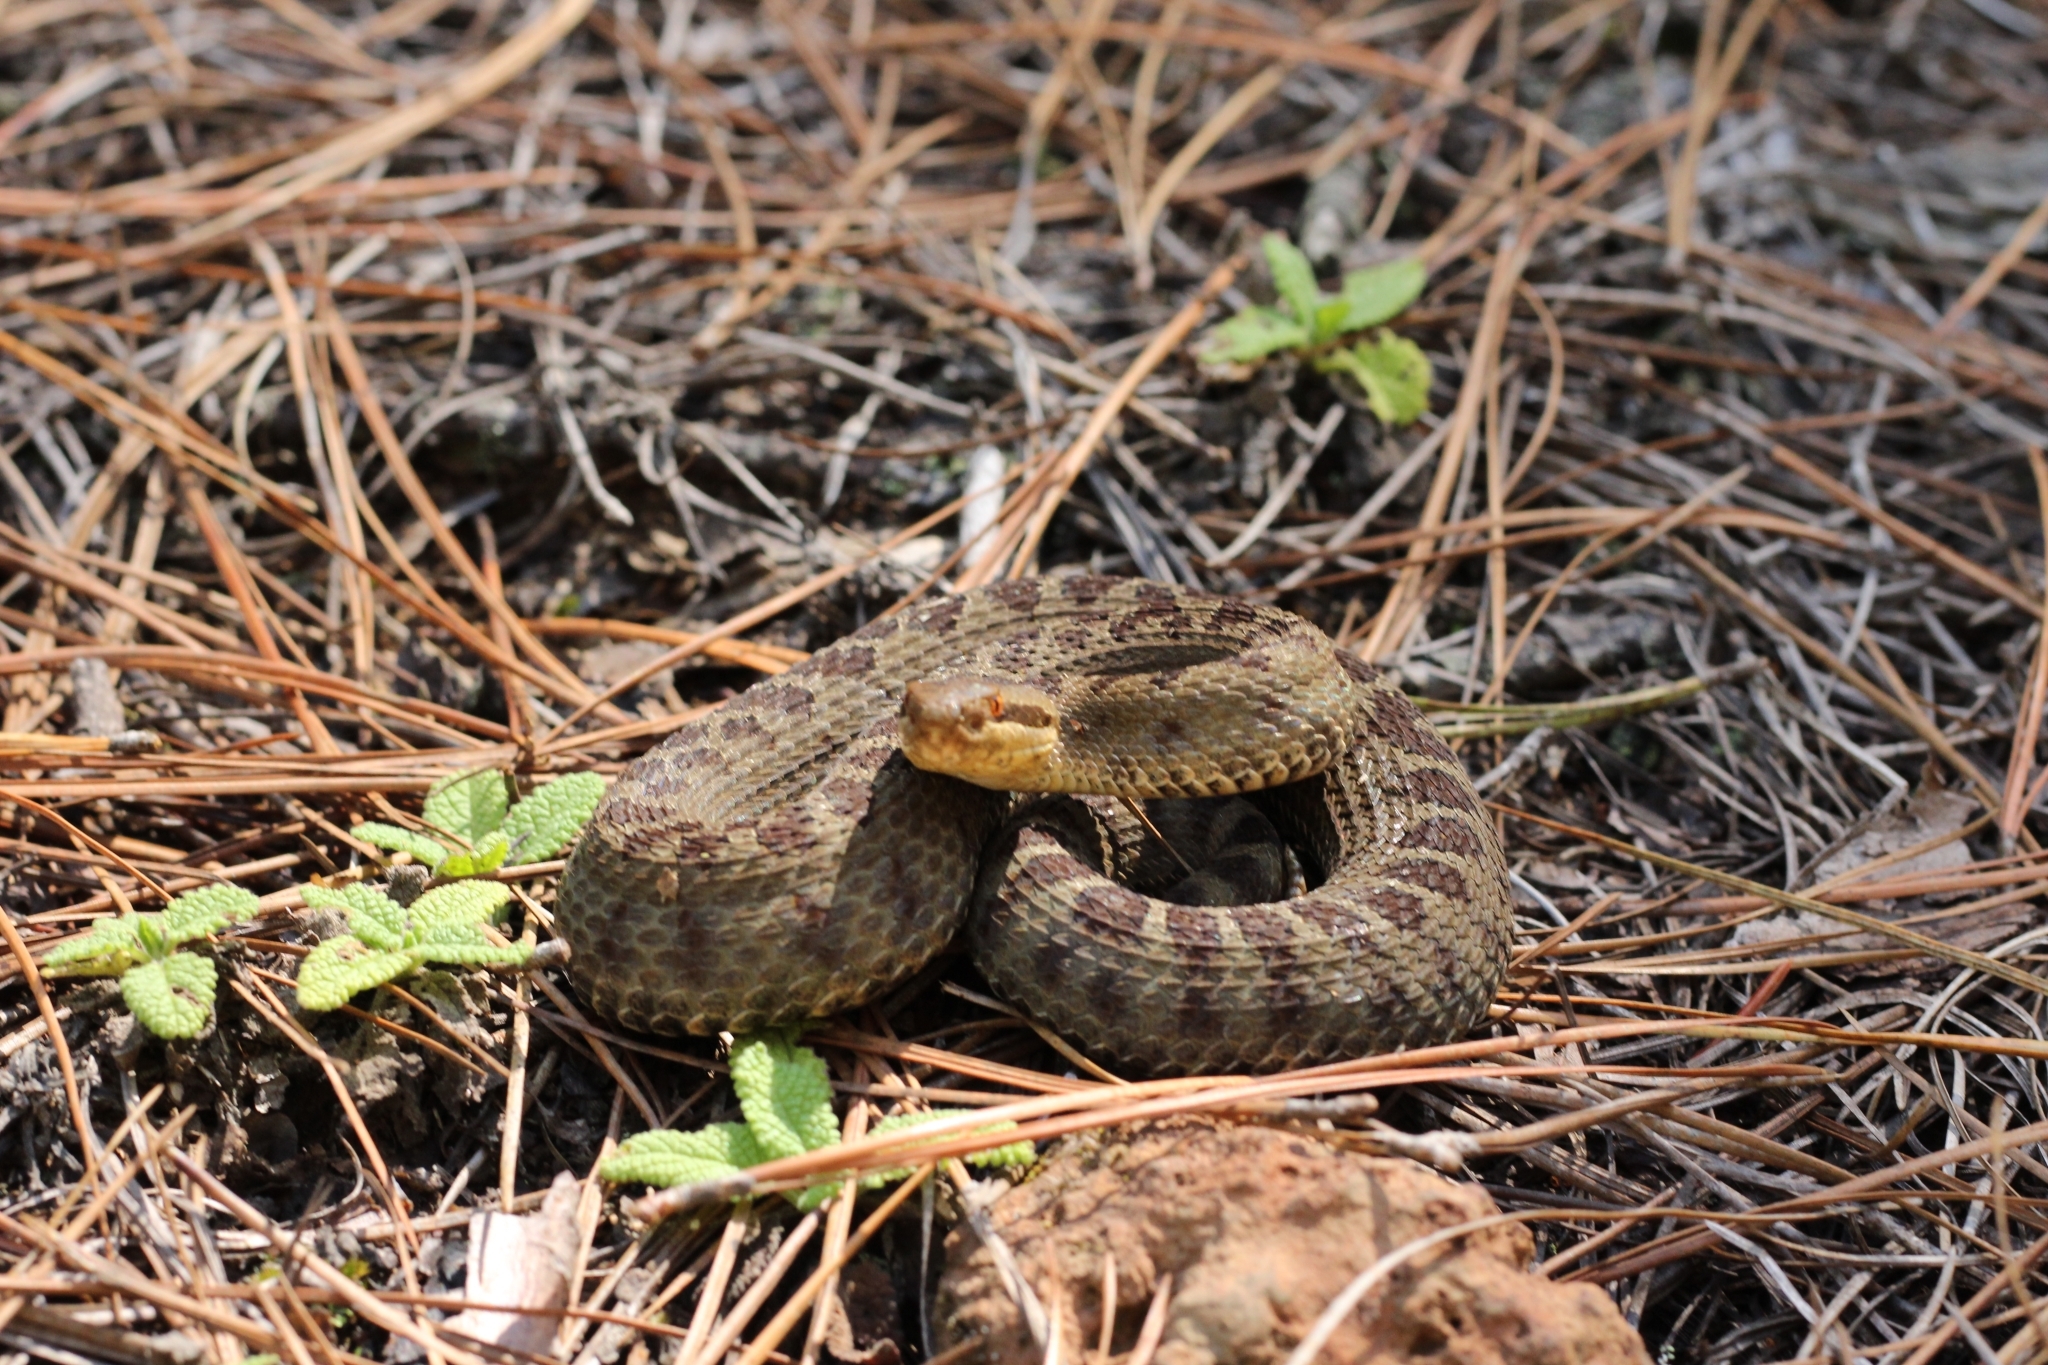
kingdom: Animalia
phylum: Chordata
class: Squamata
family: Viperidae
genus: Crotalus
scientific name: Crotalus triseriatus
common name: Central plateau dusky rattlesnake
